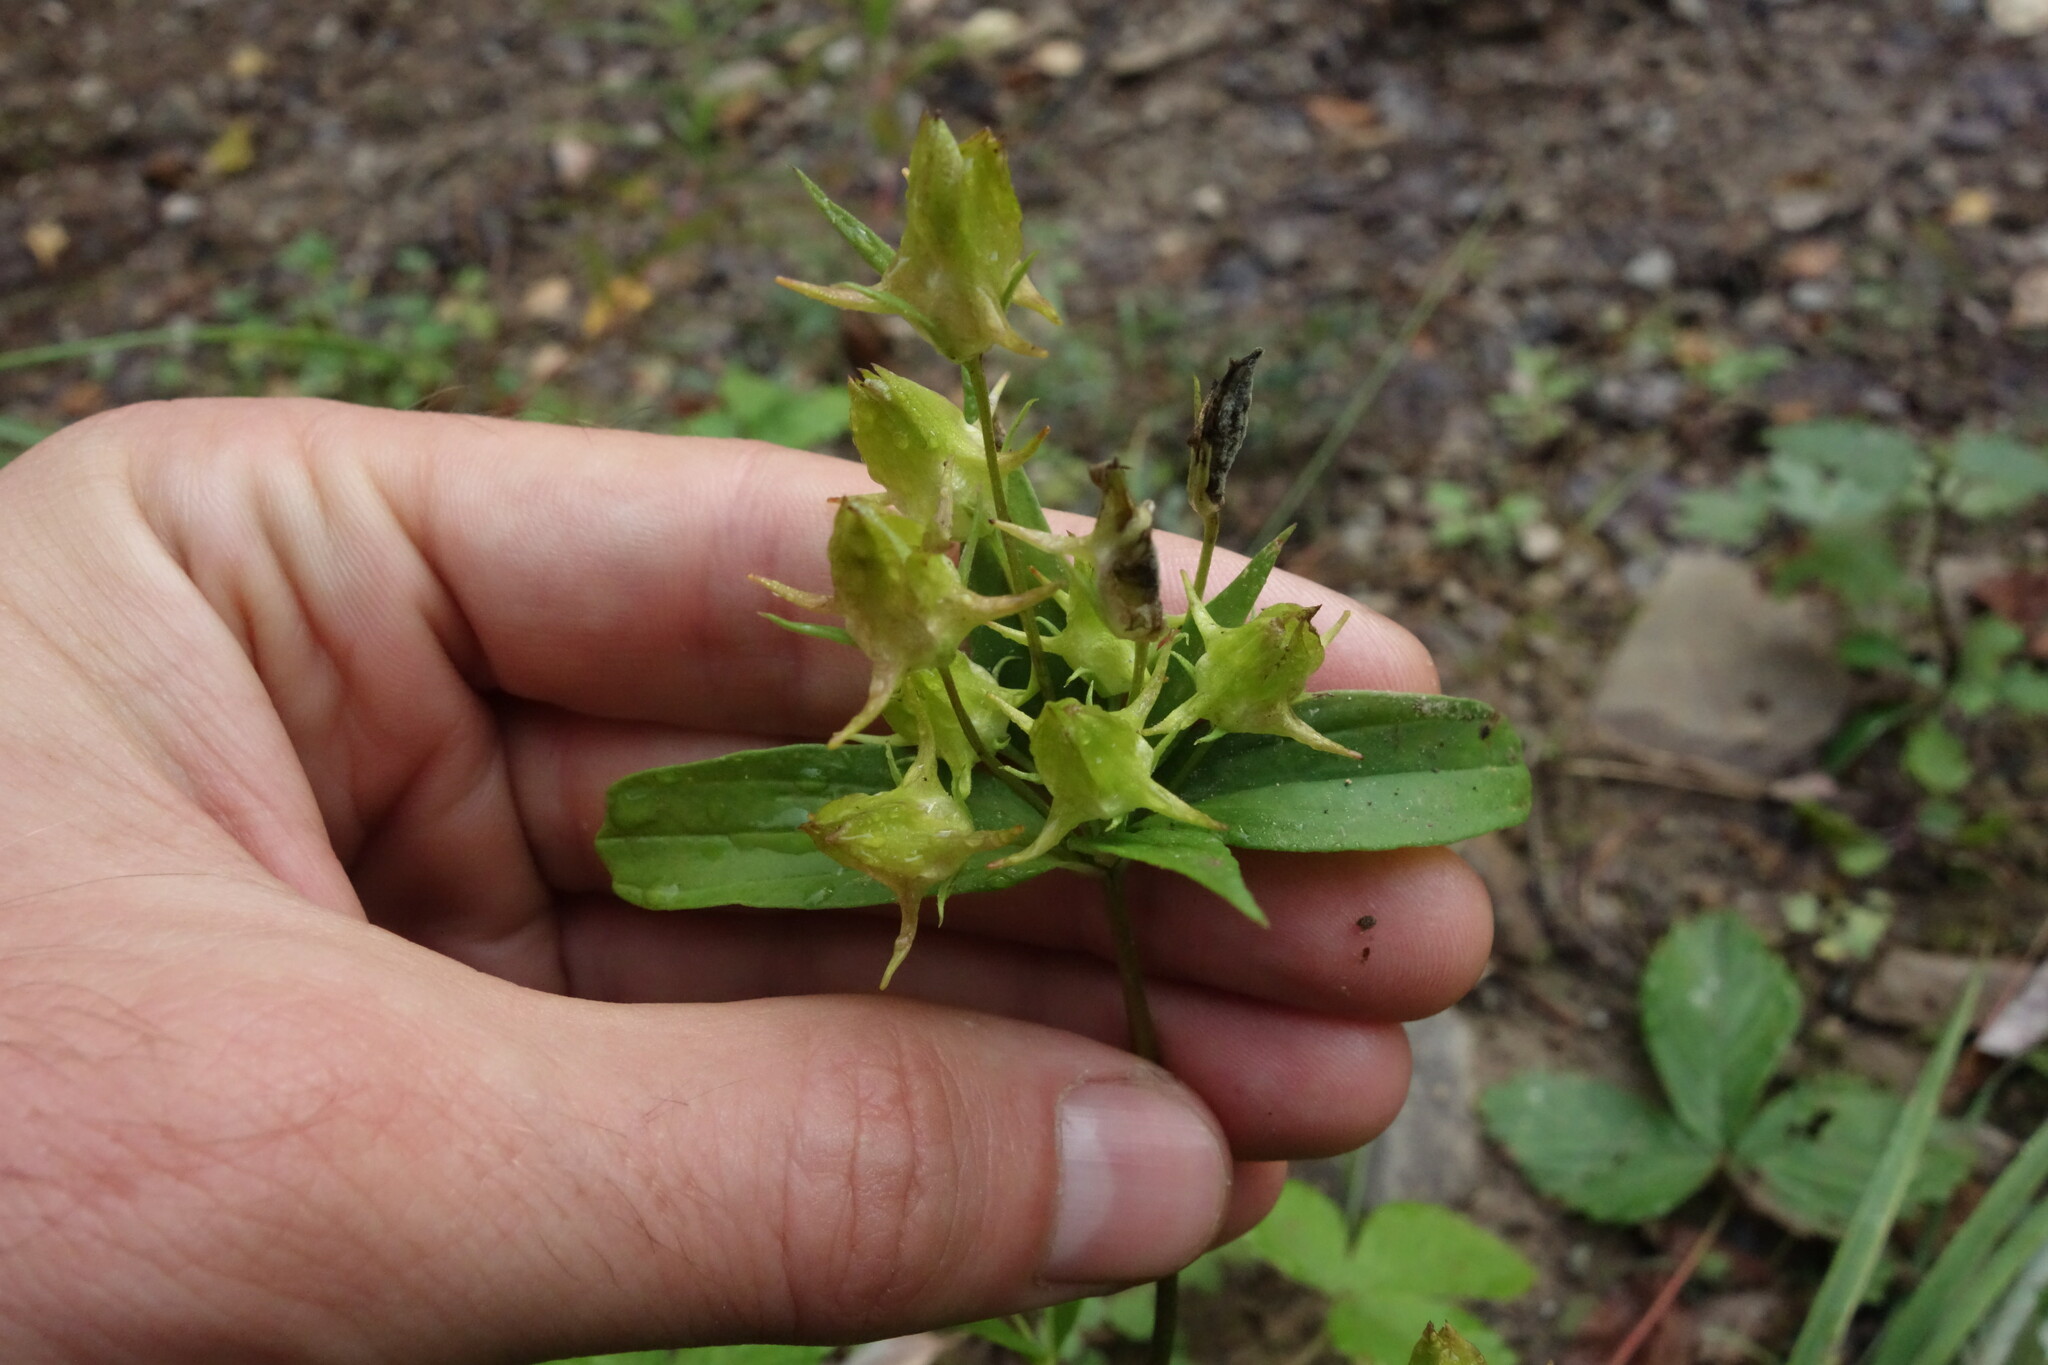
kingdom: Plantae
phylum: Tracheophyta
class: Magnoliopsida
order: Gentianales
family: Gentianaceae
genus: Halenia
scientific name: Halenia corniculata
